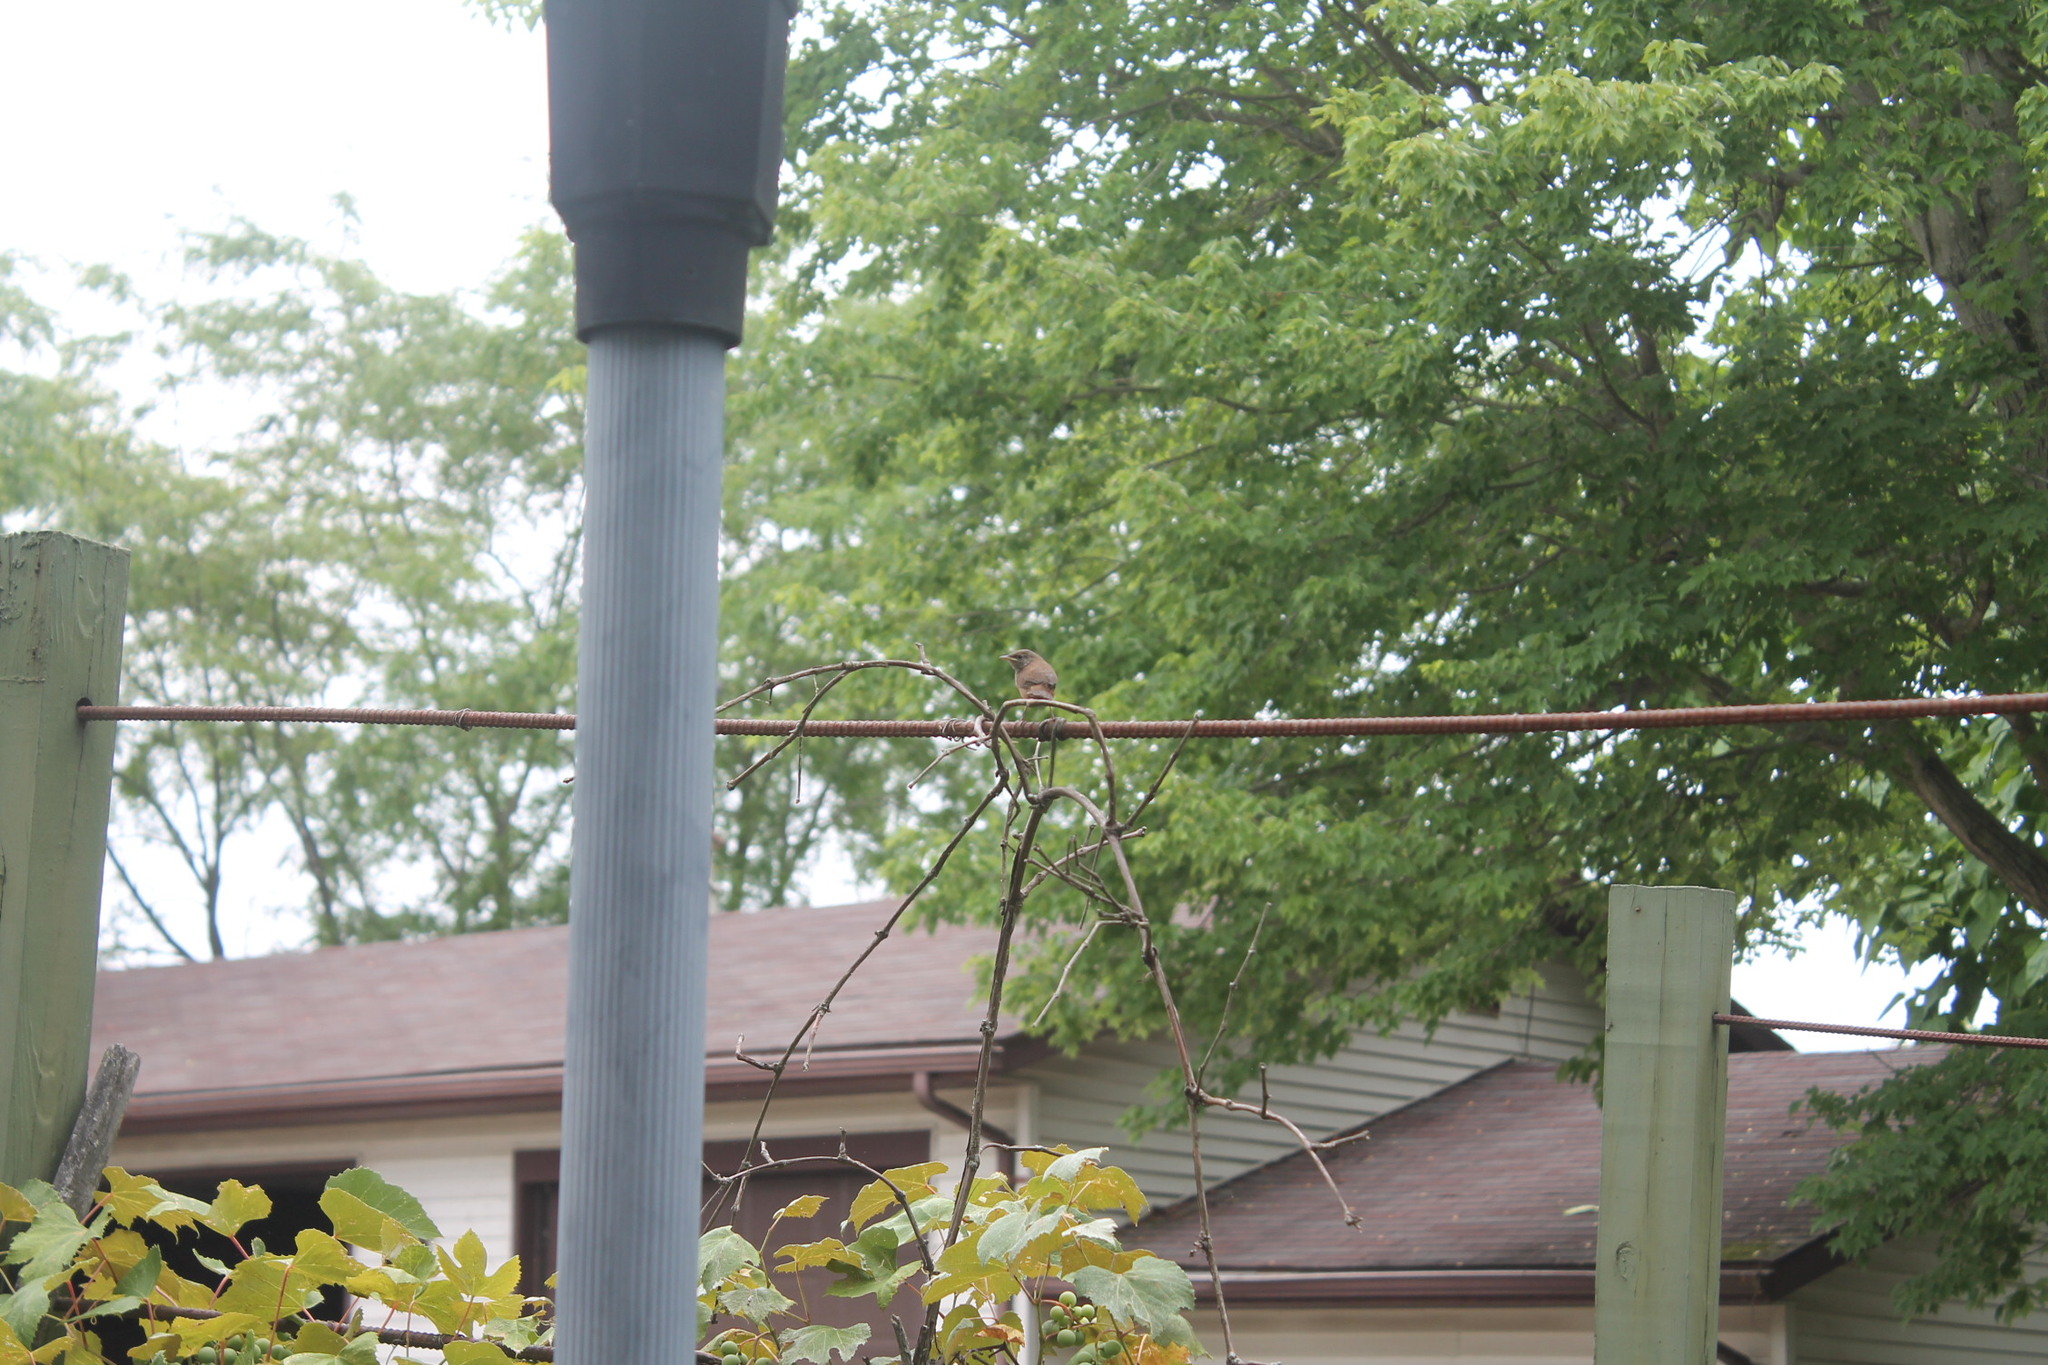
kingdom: Animalia
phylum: Chordata
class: Aves
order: Passeriformes
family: Troglodytidae
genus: Troglodytes
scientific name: Troglodytes aedon
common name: House wren
